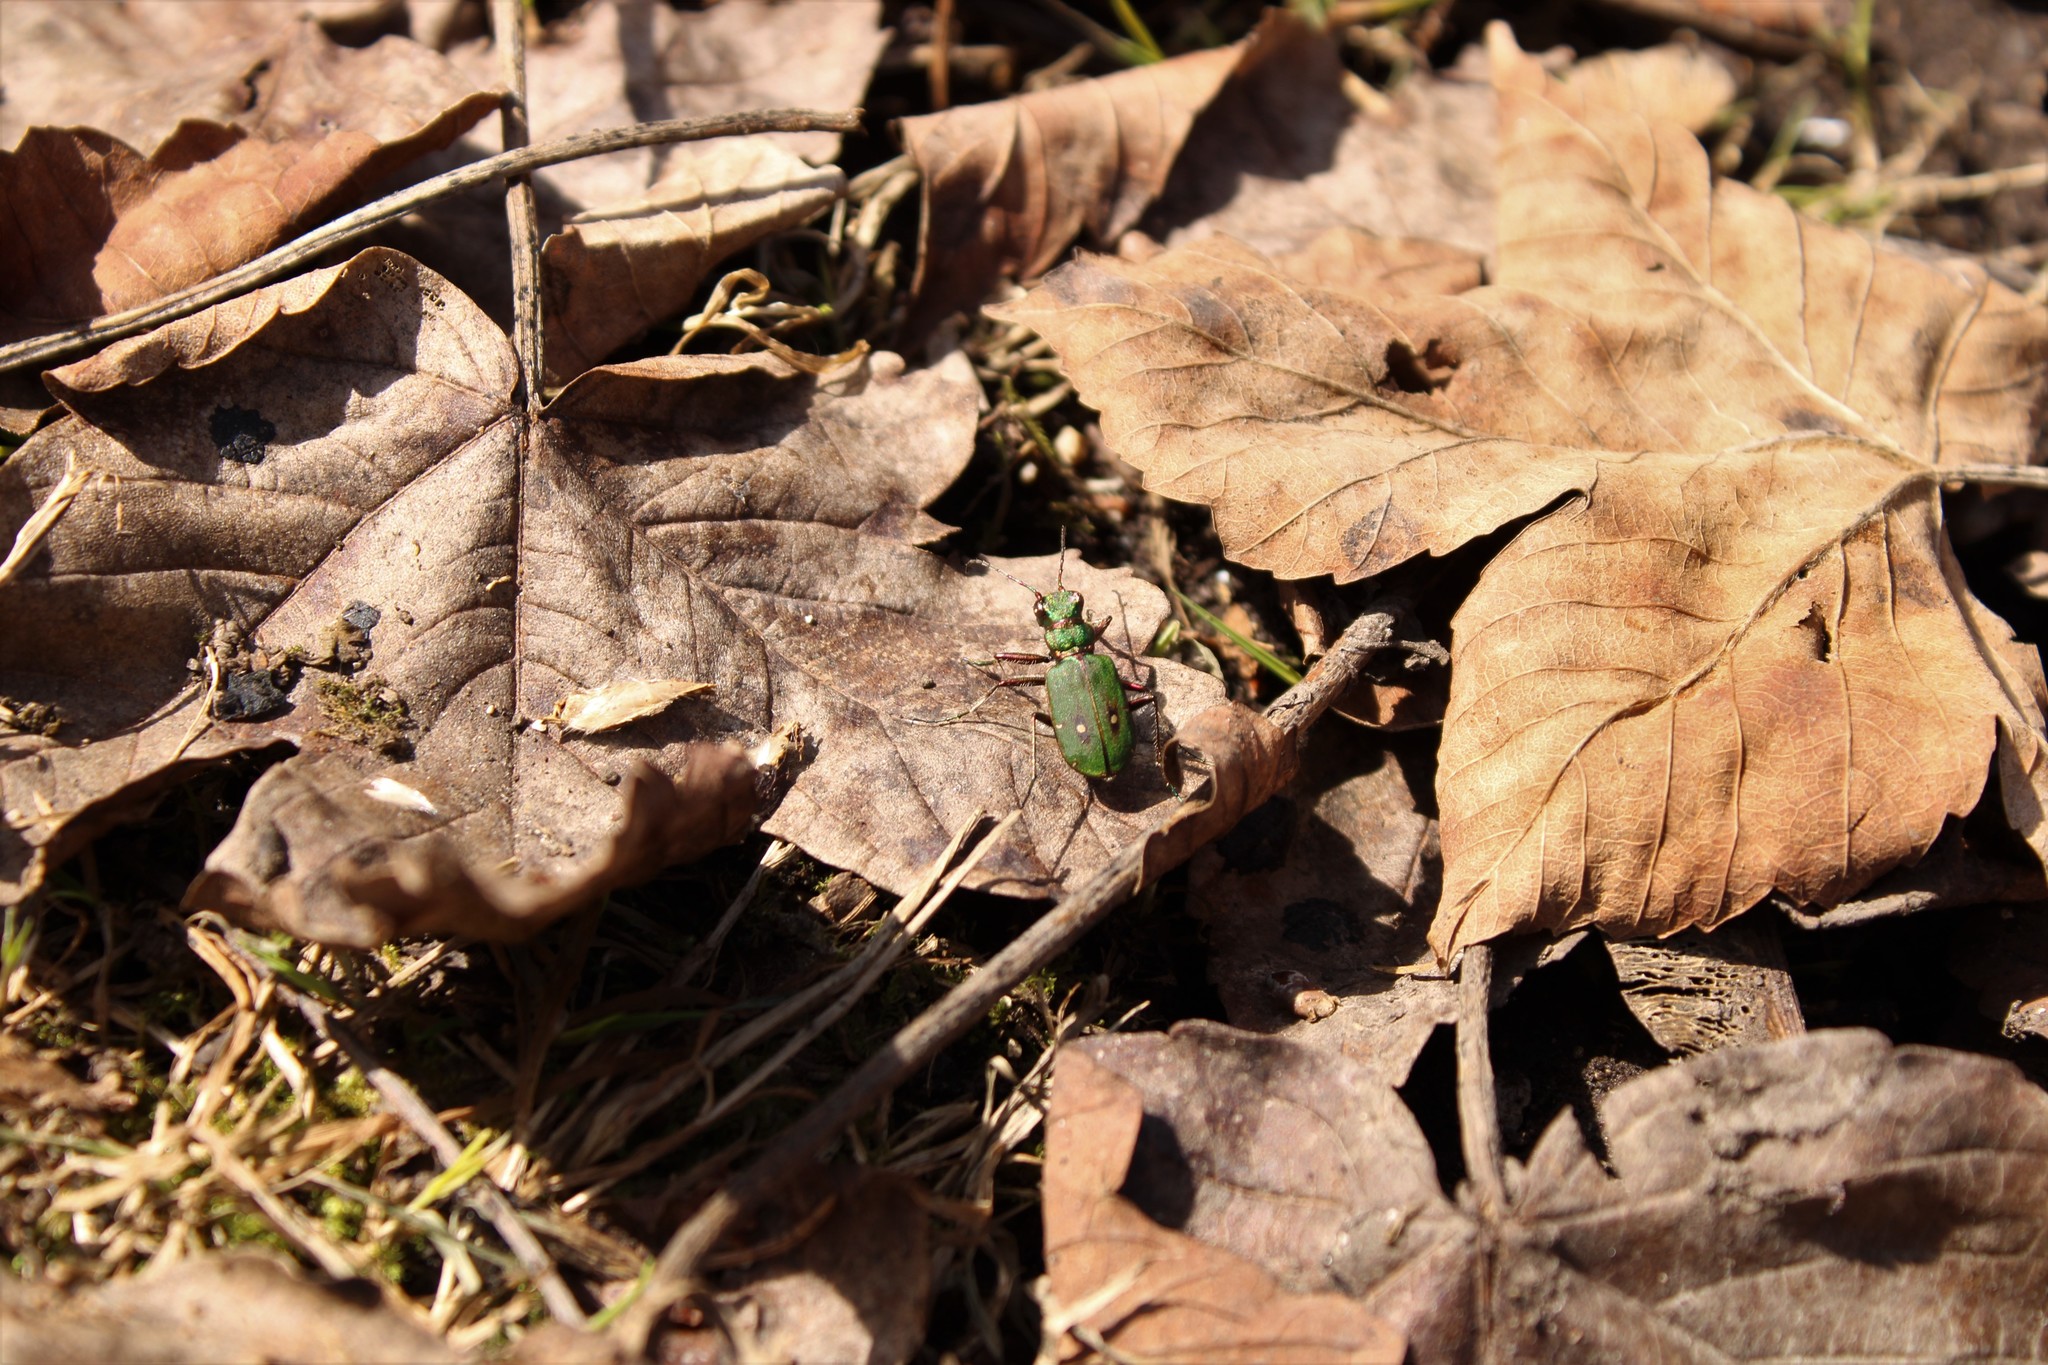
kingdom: Animalia
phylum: Arthropoda
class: Insecta
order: Coleoptera
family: Carabidae
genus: Cicindela
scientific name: Cicindela campestris
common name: Common tiger beetle
